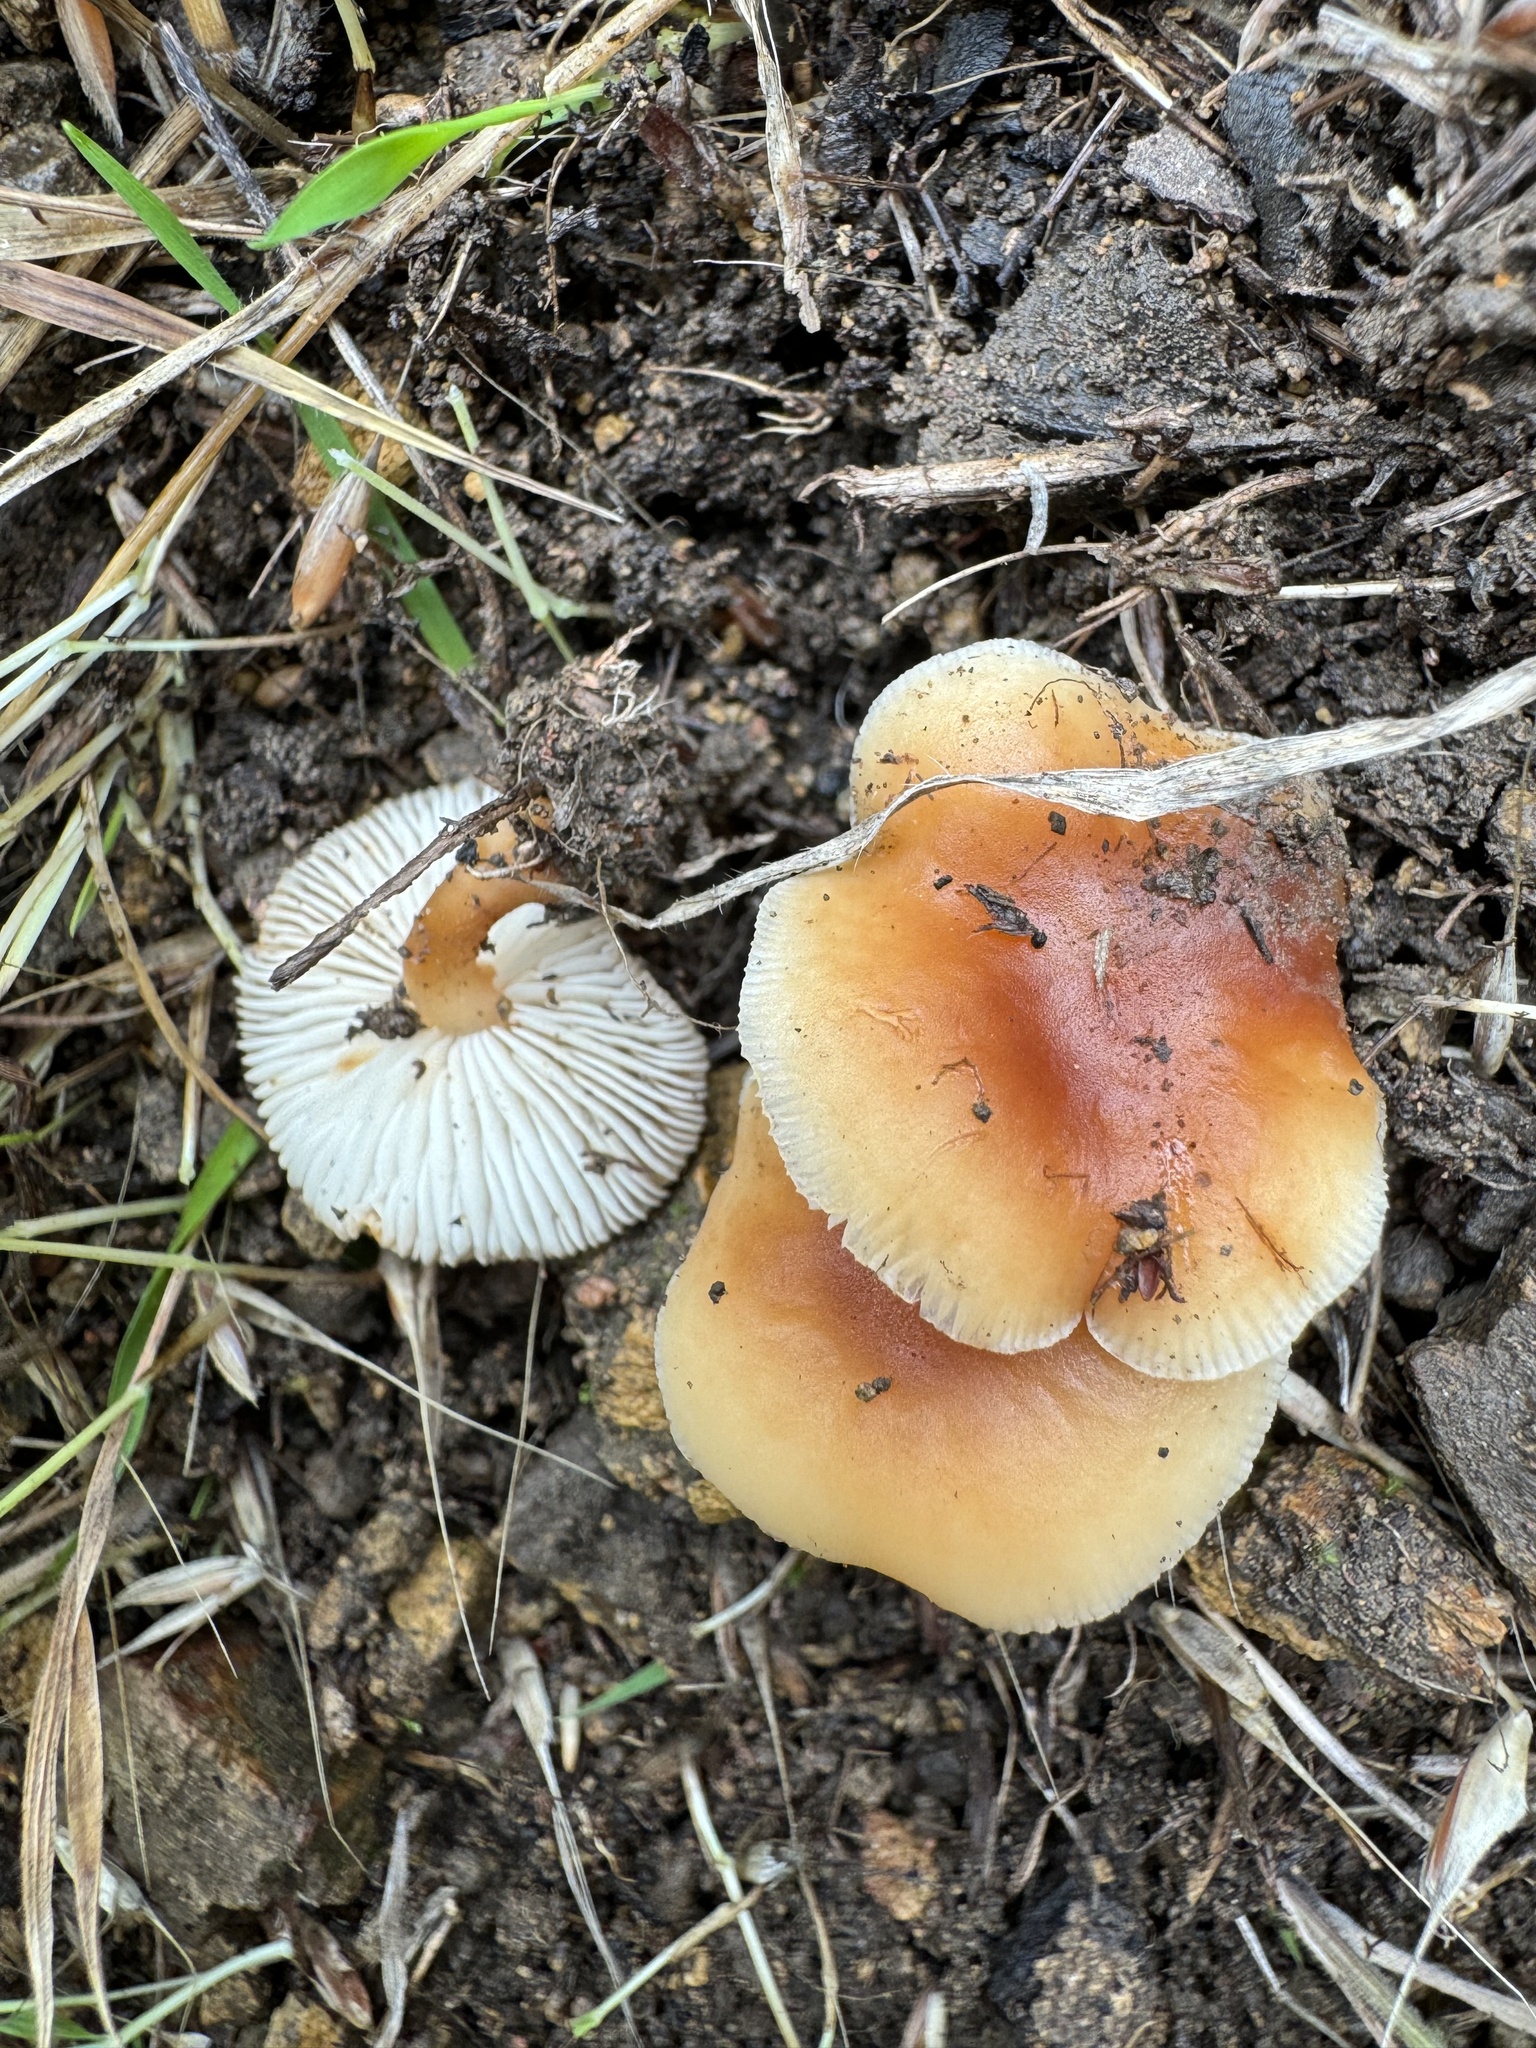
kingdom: Fungi
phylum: Basidiomycota
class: Agaricomycetes
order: Agaricales
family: Omphalotaceae
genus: Gymnopus
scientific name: Gymnopus dryophilus
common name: Penny top
